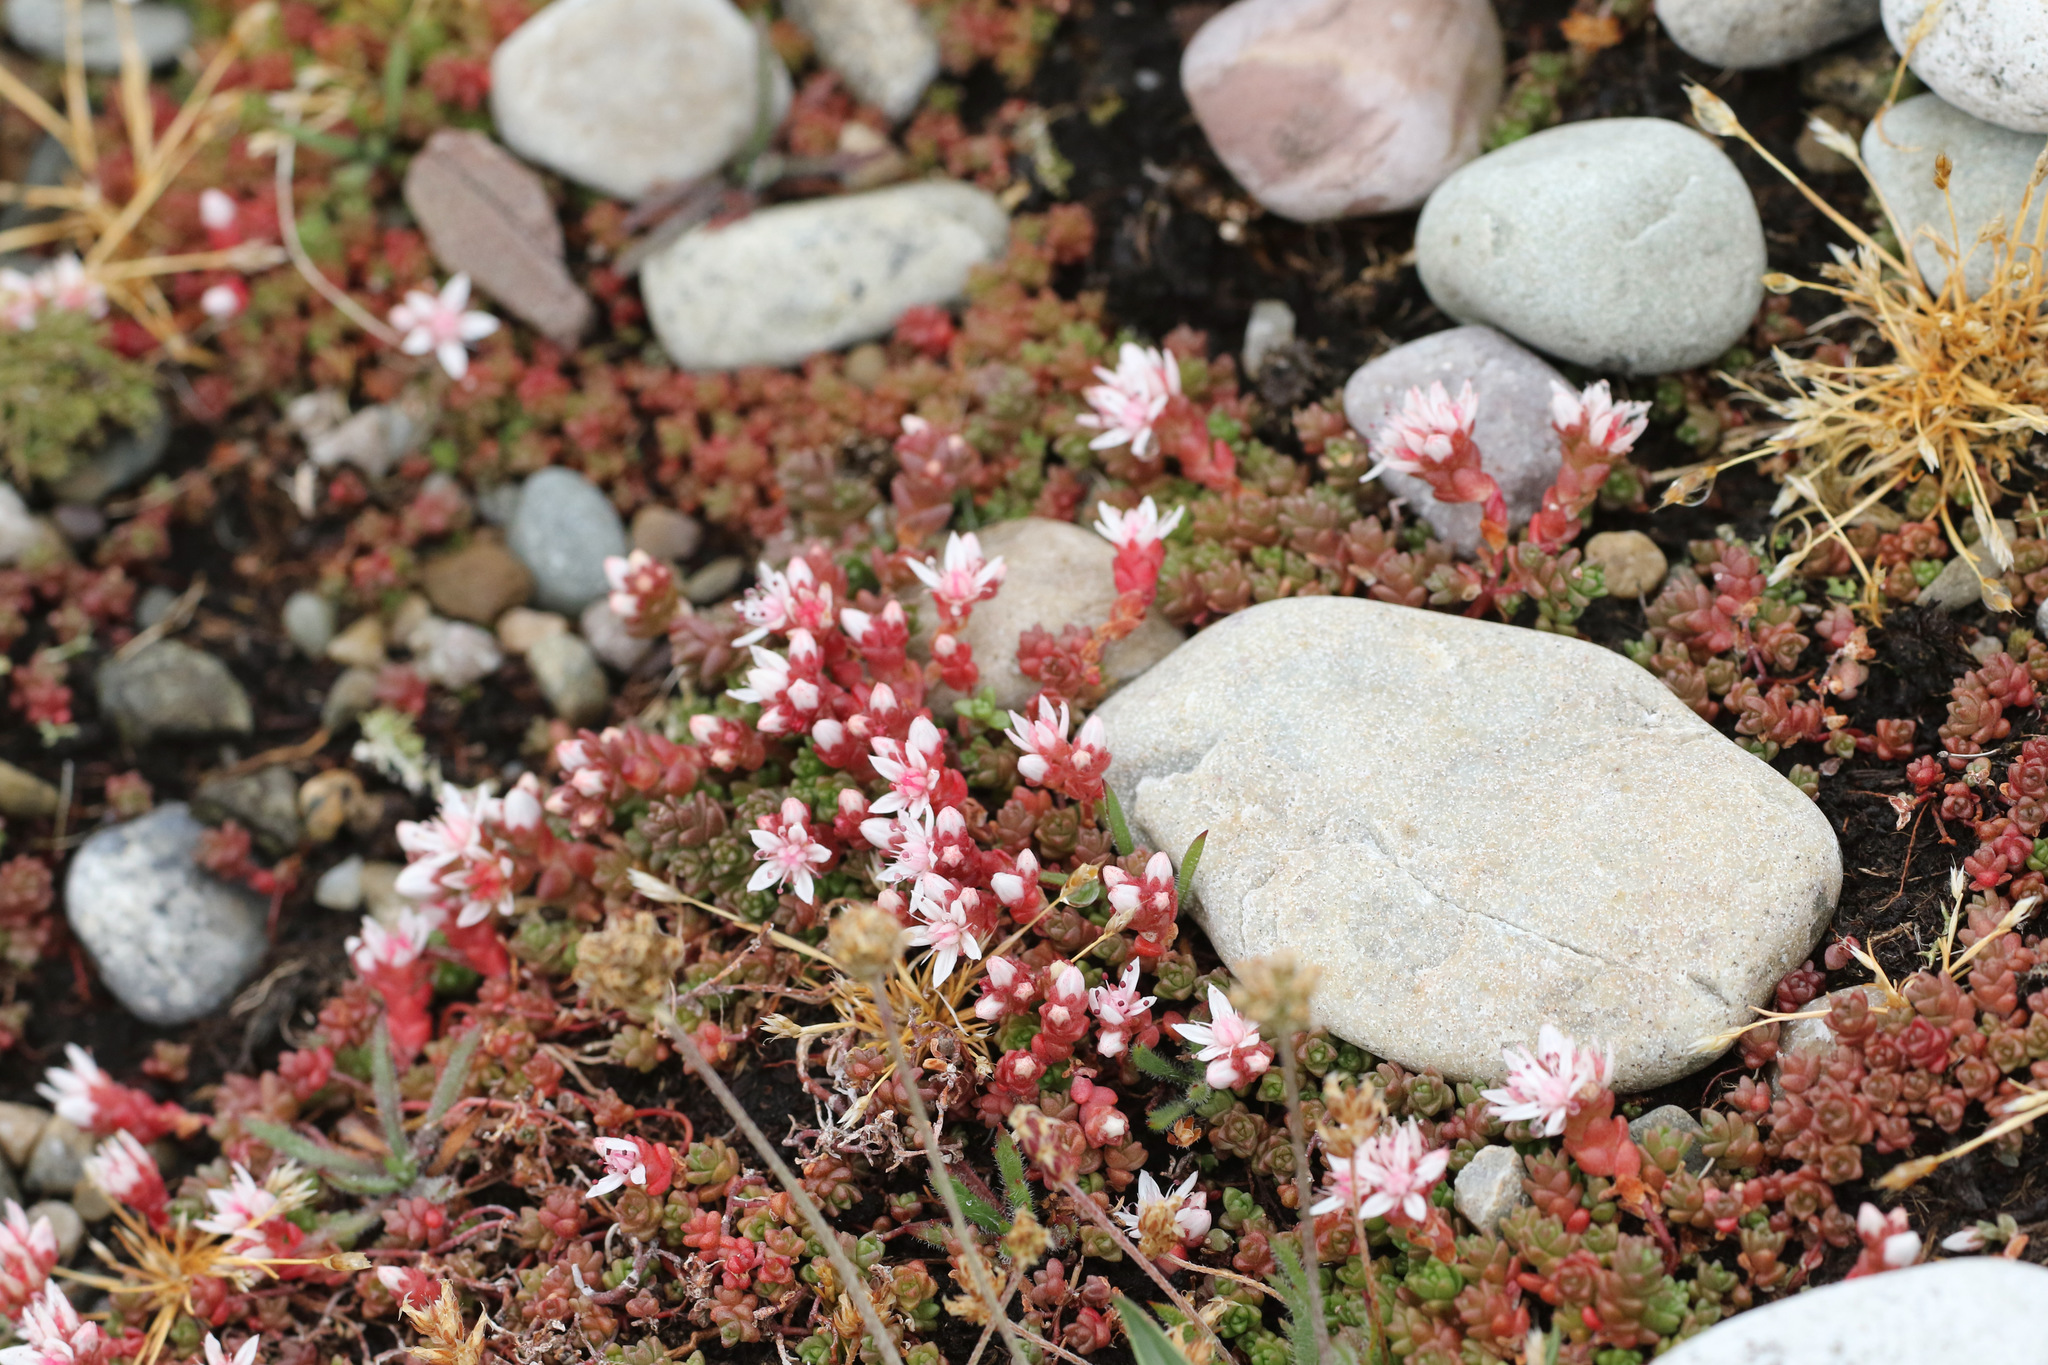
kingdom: Plantae
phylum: Tracheophyta
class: Magnoliopsida
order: Saxifragales
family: Crassulaceae
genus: Sedum
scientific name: Sedum anglicum
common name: English stonecrop
